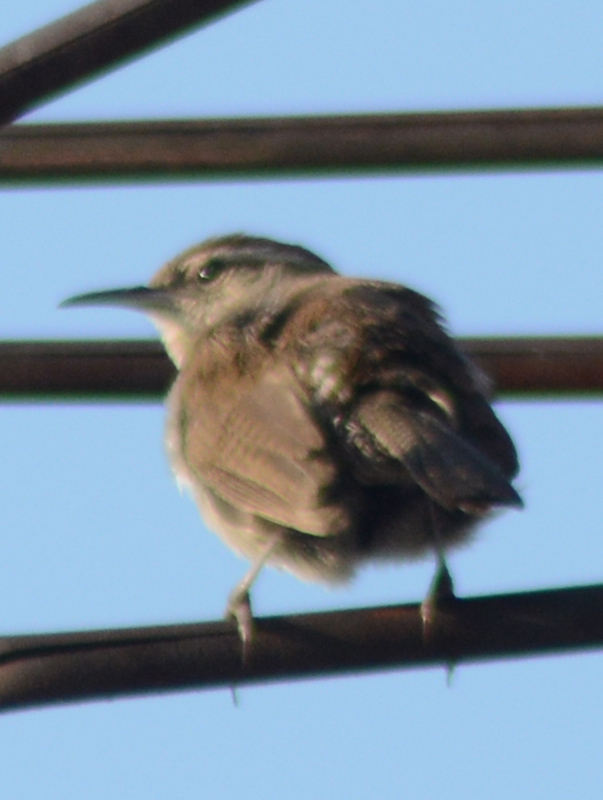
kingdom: Animalia
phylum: Chordata
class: Aves
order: Passeriformes
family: Troglodytidae
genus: Thryomanes
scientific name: Thryomanes bewickii
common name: Bewick's wren
